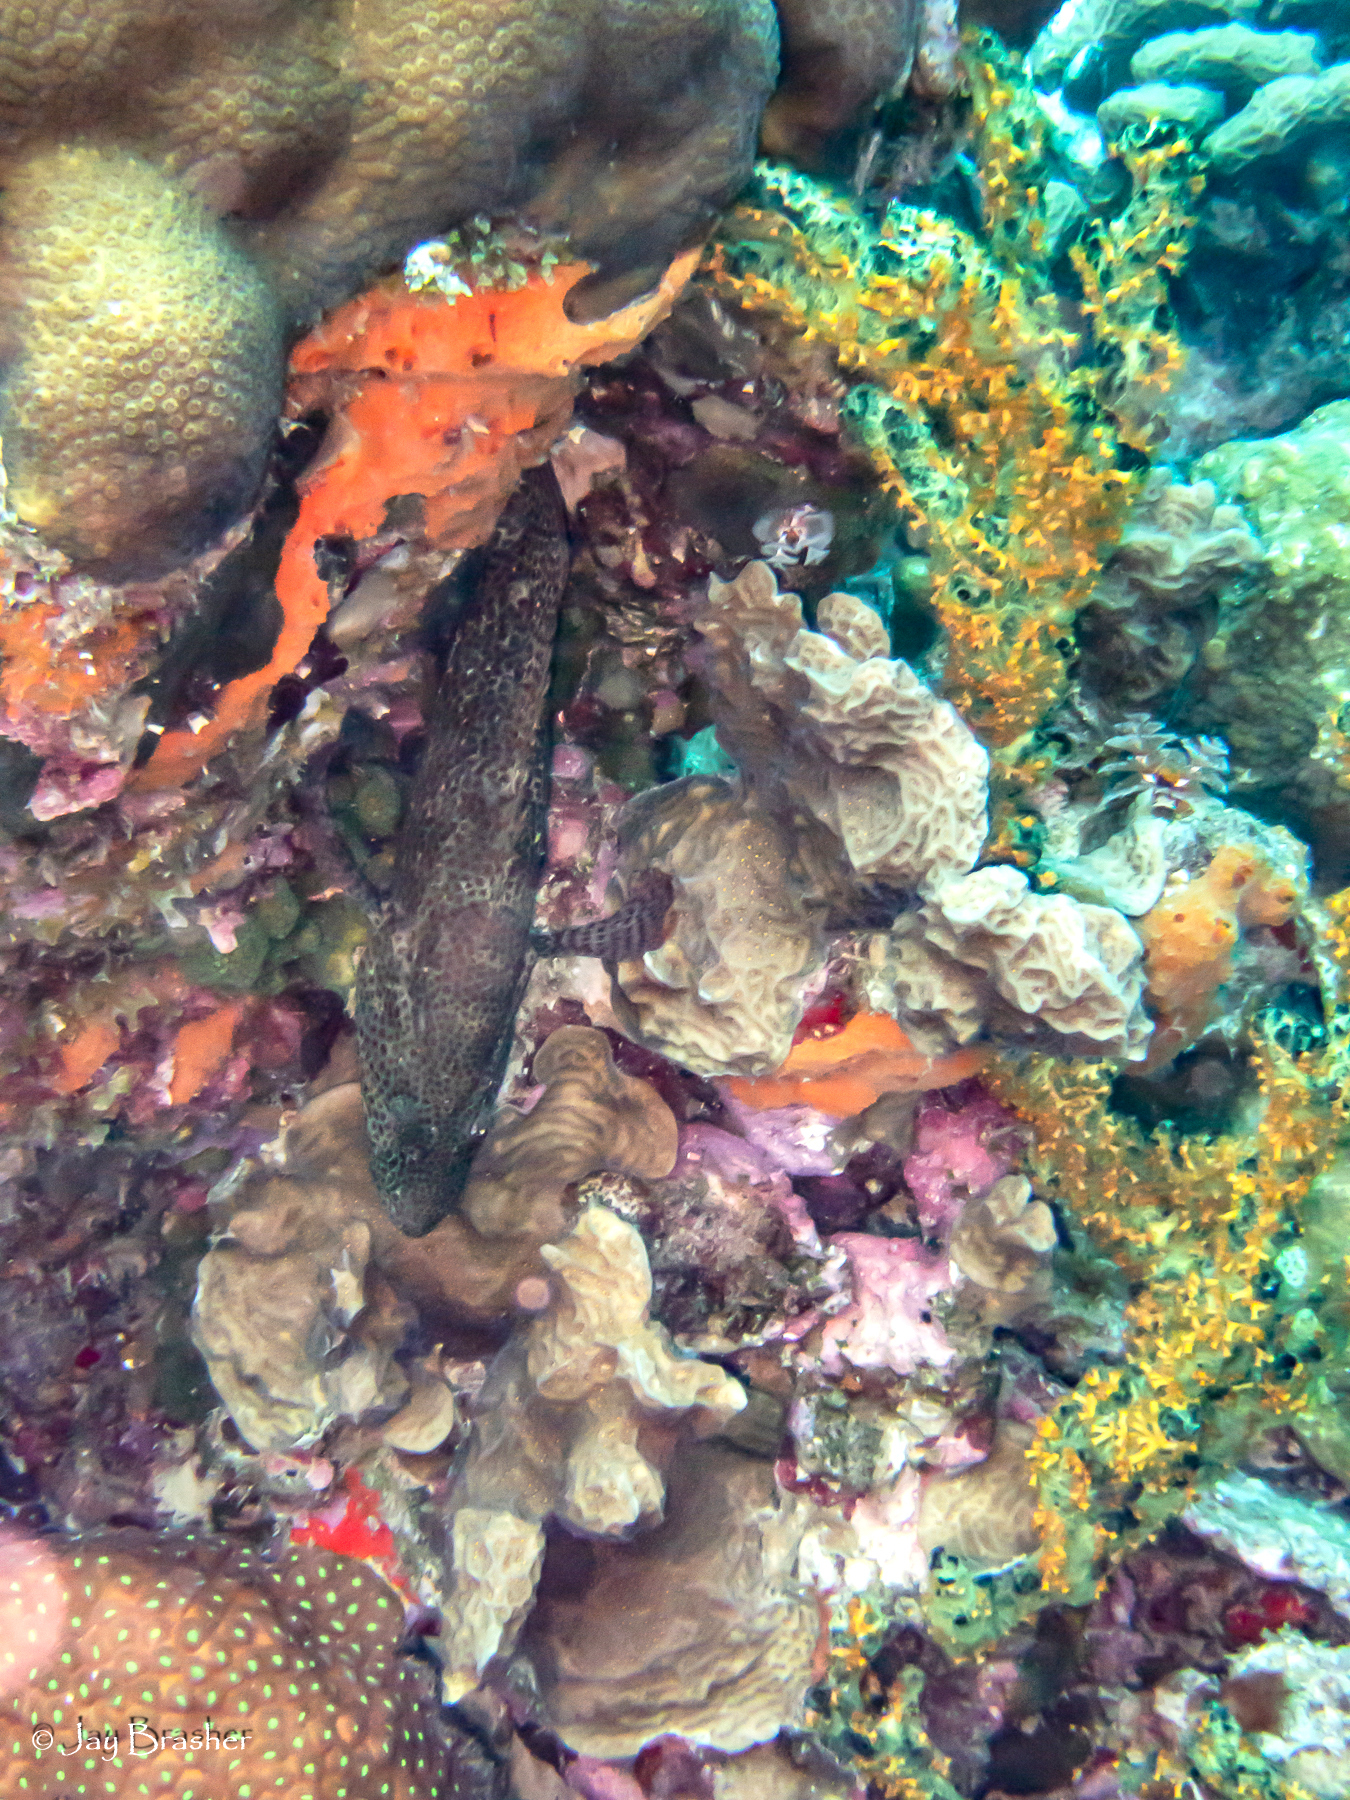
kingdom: Animalia
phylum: Chordata
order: Perciformes
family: Serranidae
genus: Cephalopholis
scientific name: Cephalopholis cruentata
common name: Graysby
